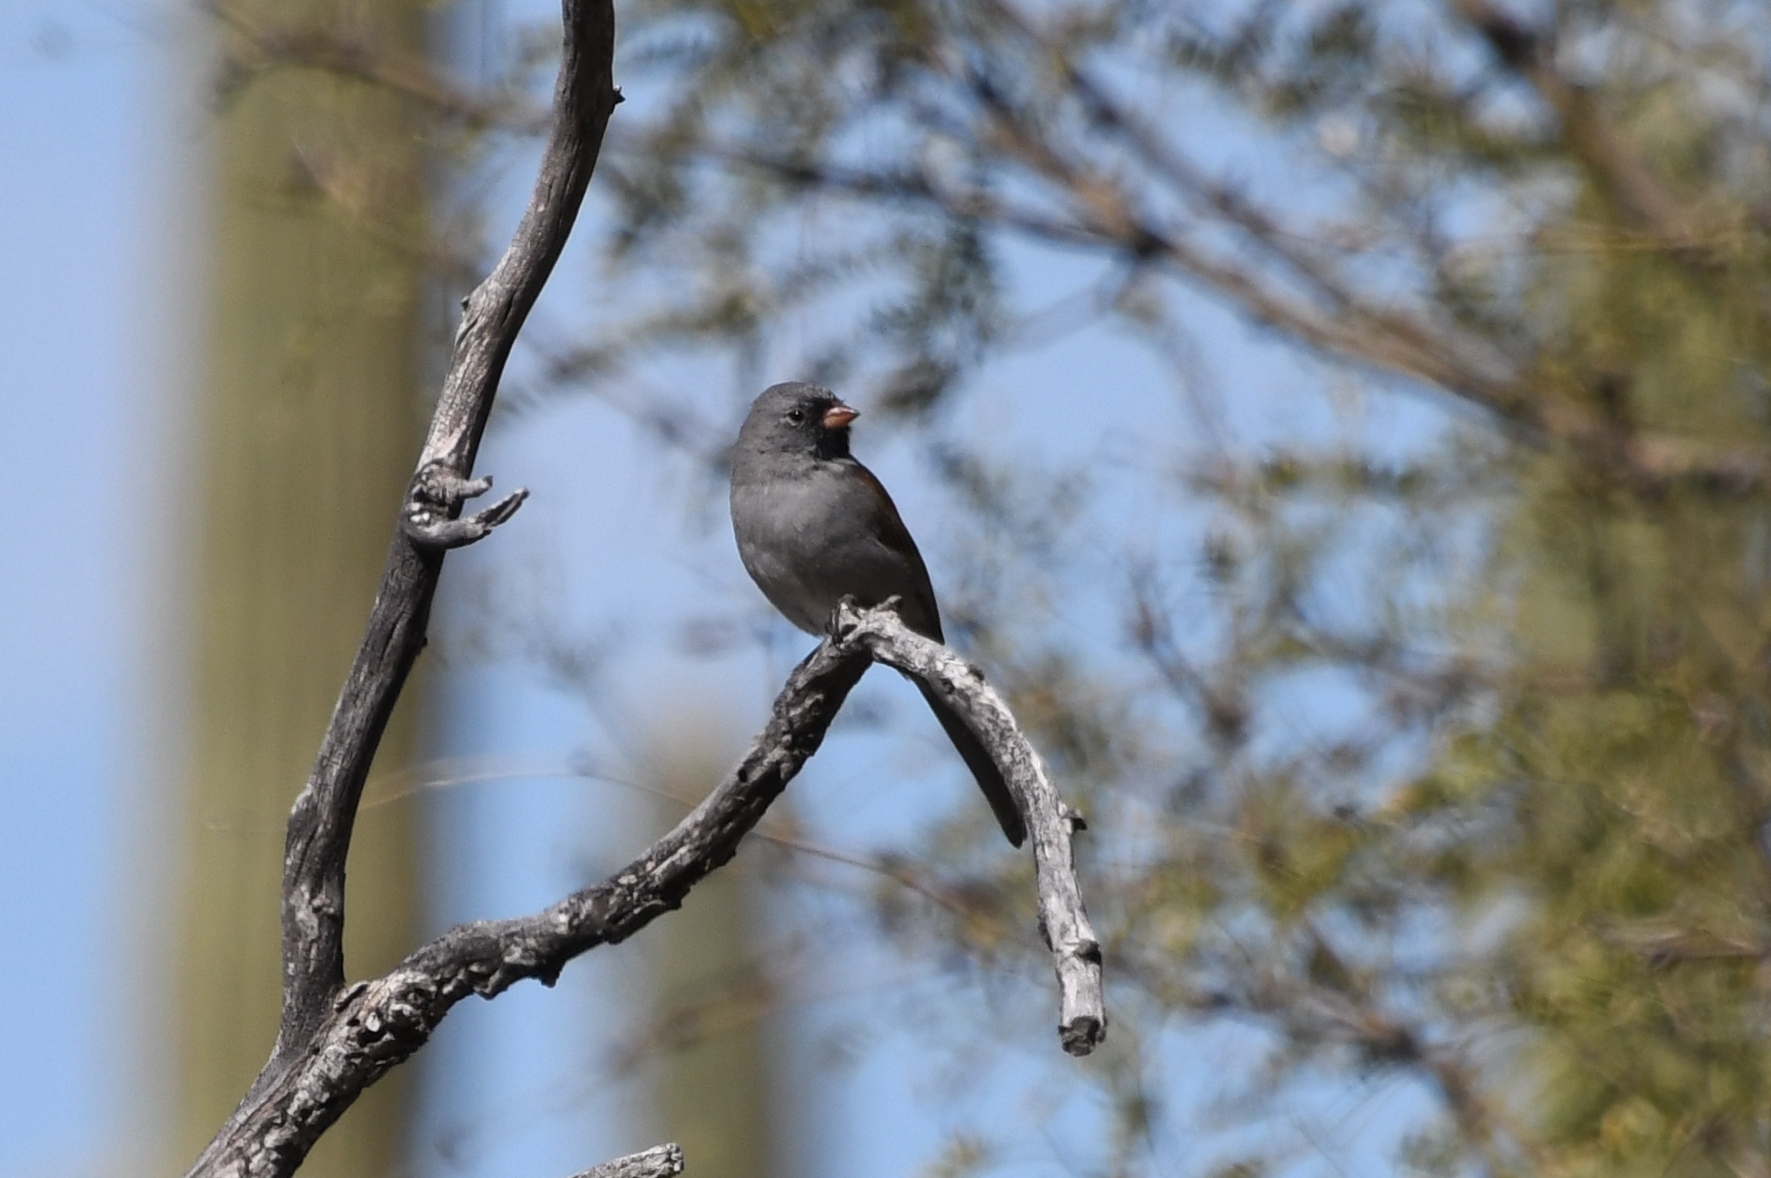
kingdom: Animalia
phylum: Chordata
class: Aves
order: Passeriformes
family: Passerellidae
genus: Spizella
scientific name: Spizella atrogularis
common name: Black-chinned sparrow
